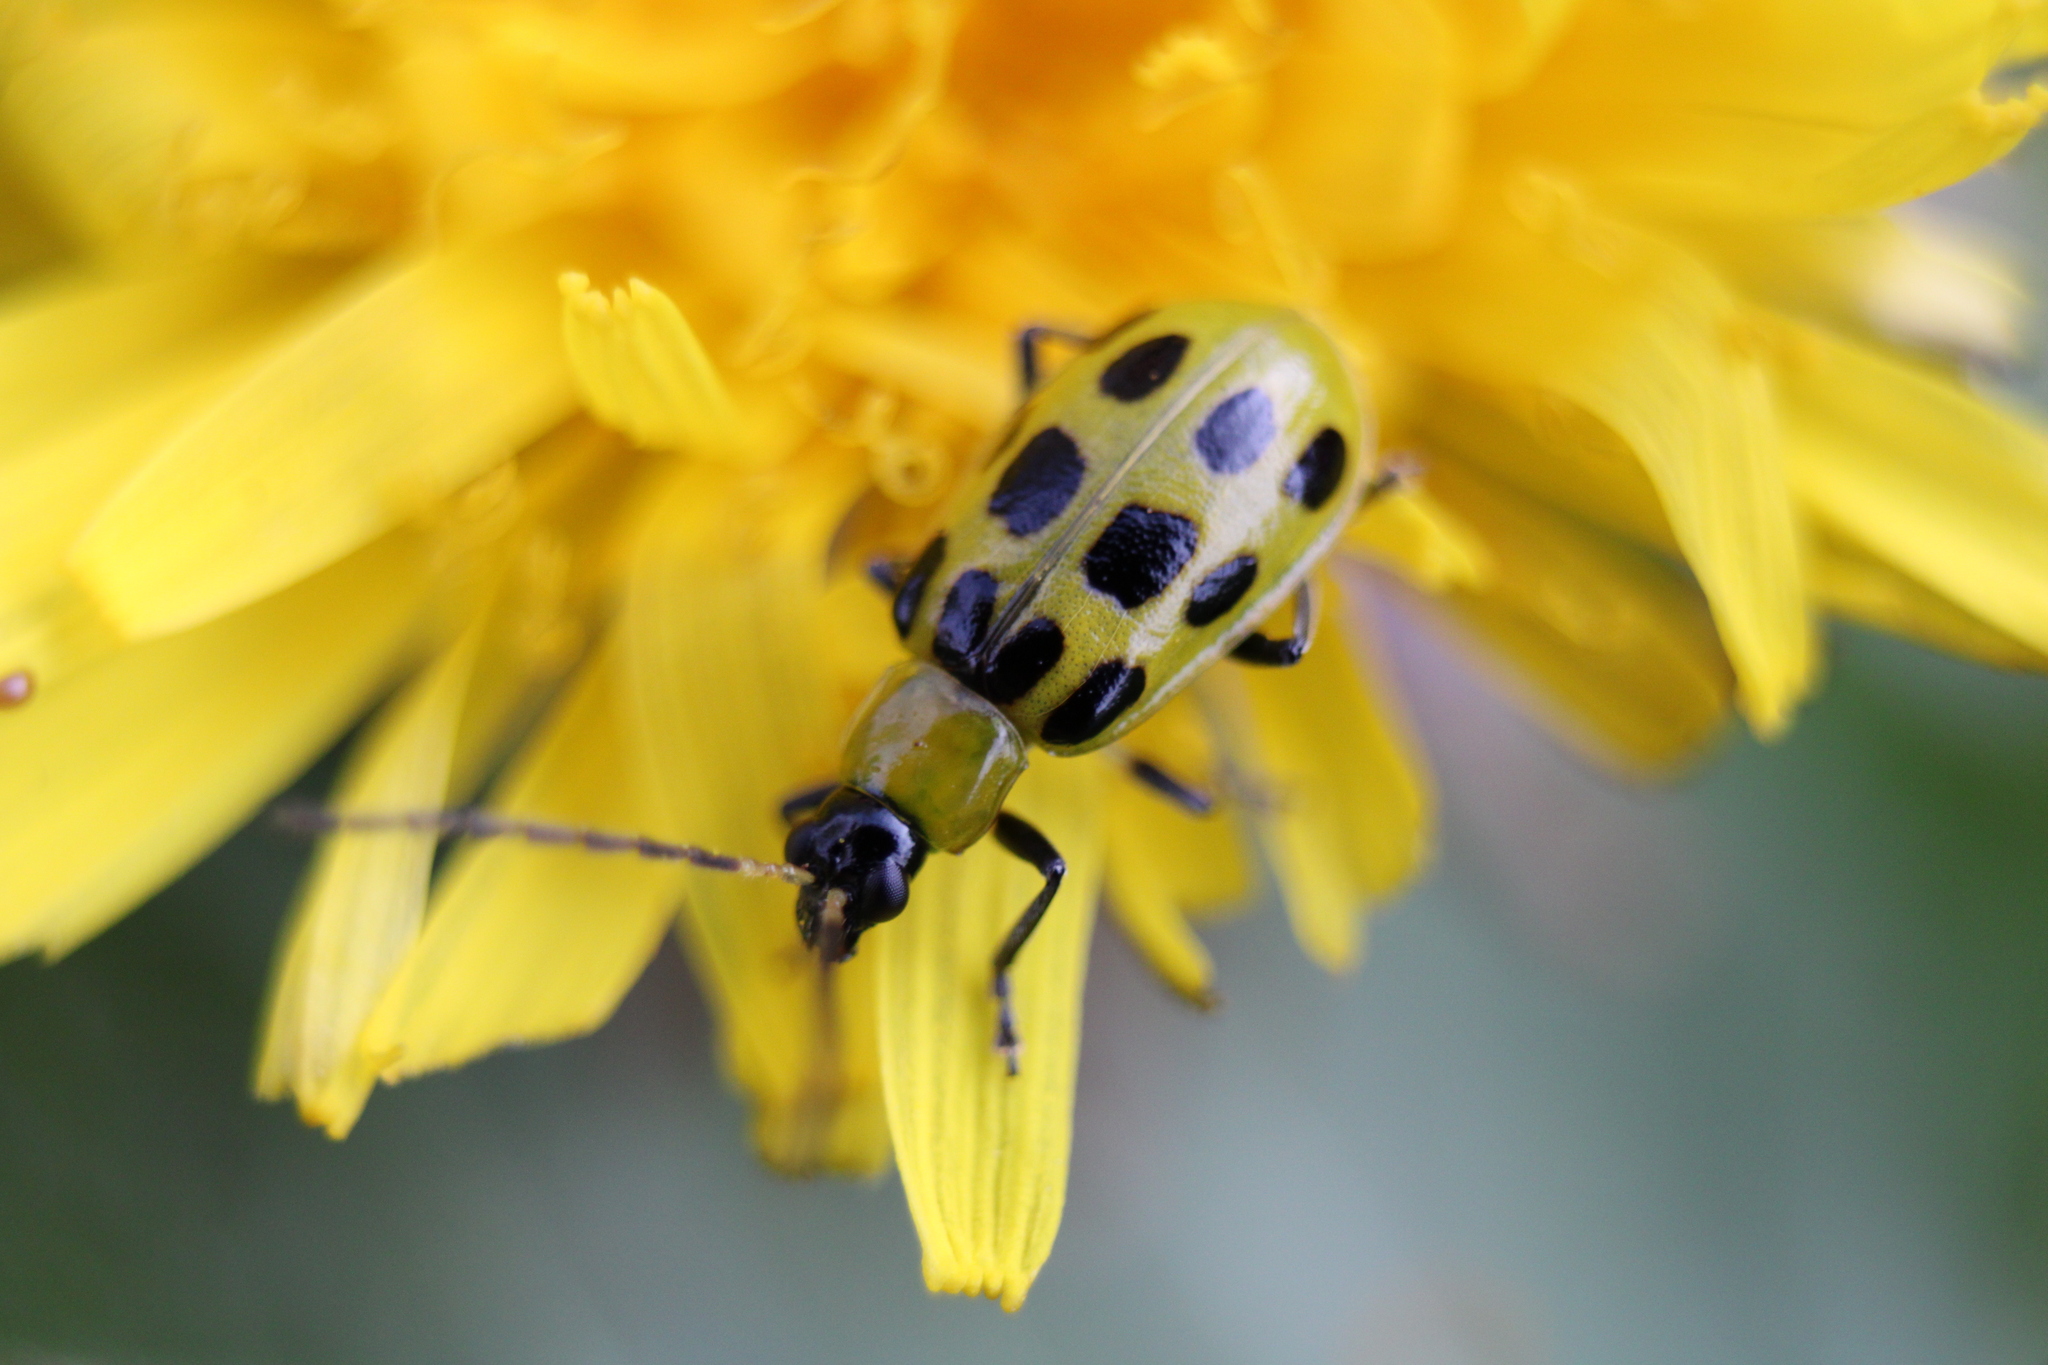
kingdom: Animalia
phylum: Arthropoda
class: Insecta
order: Coleoptera
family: Chrysomelidae
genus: Diabrotica
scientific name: Diabrotica undecimpunctata
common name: Spotted cucumber beetle
